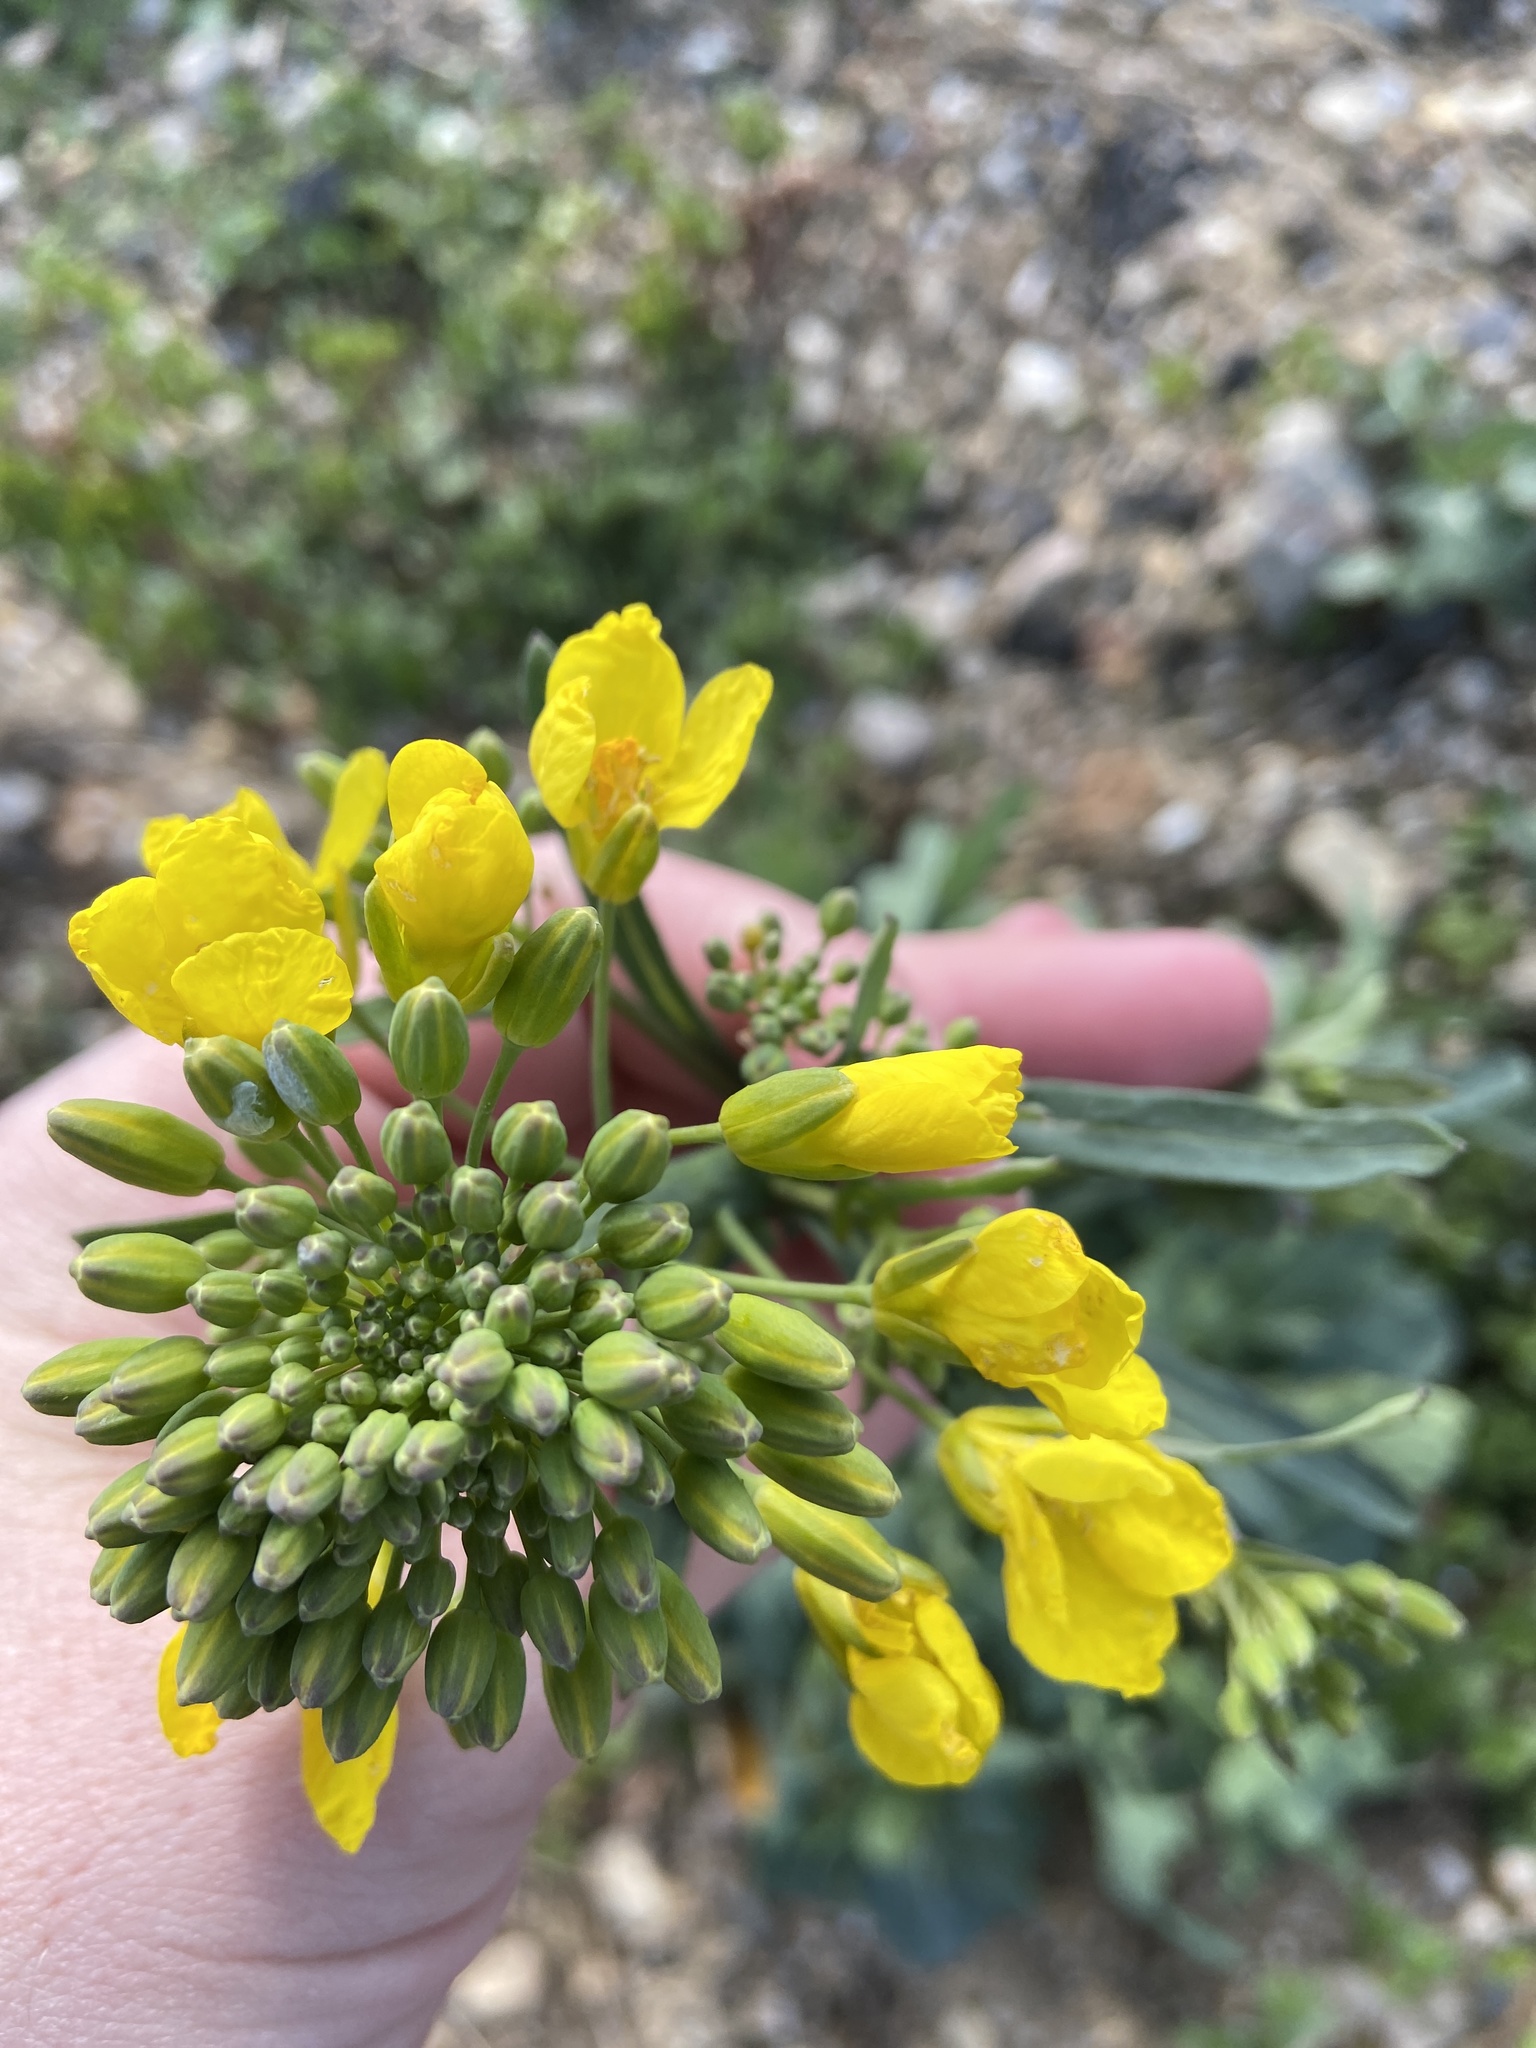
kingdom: Plantae
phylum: Tracheophyta
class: Magnoliopsida
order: Brassicales
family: Brassicaceae
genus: Brassica
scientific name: Brassica napus
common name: Rape
